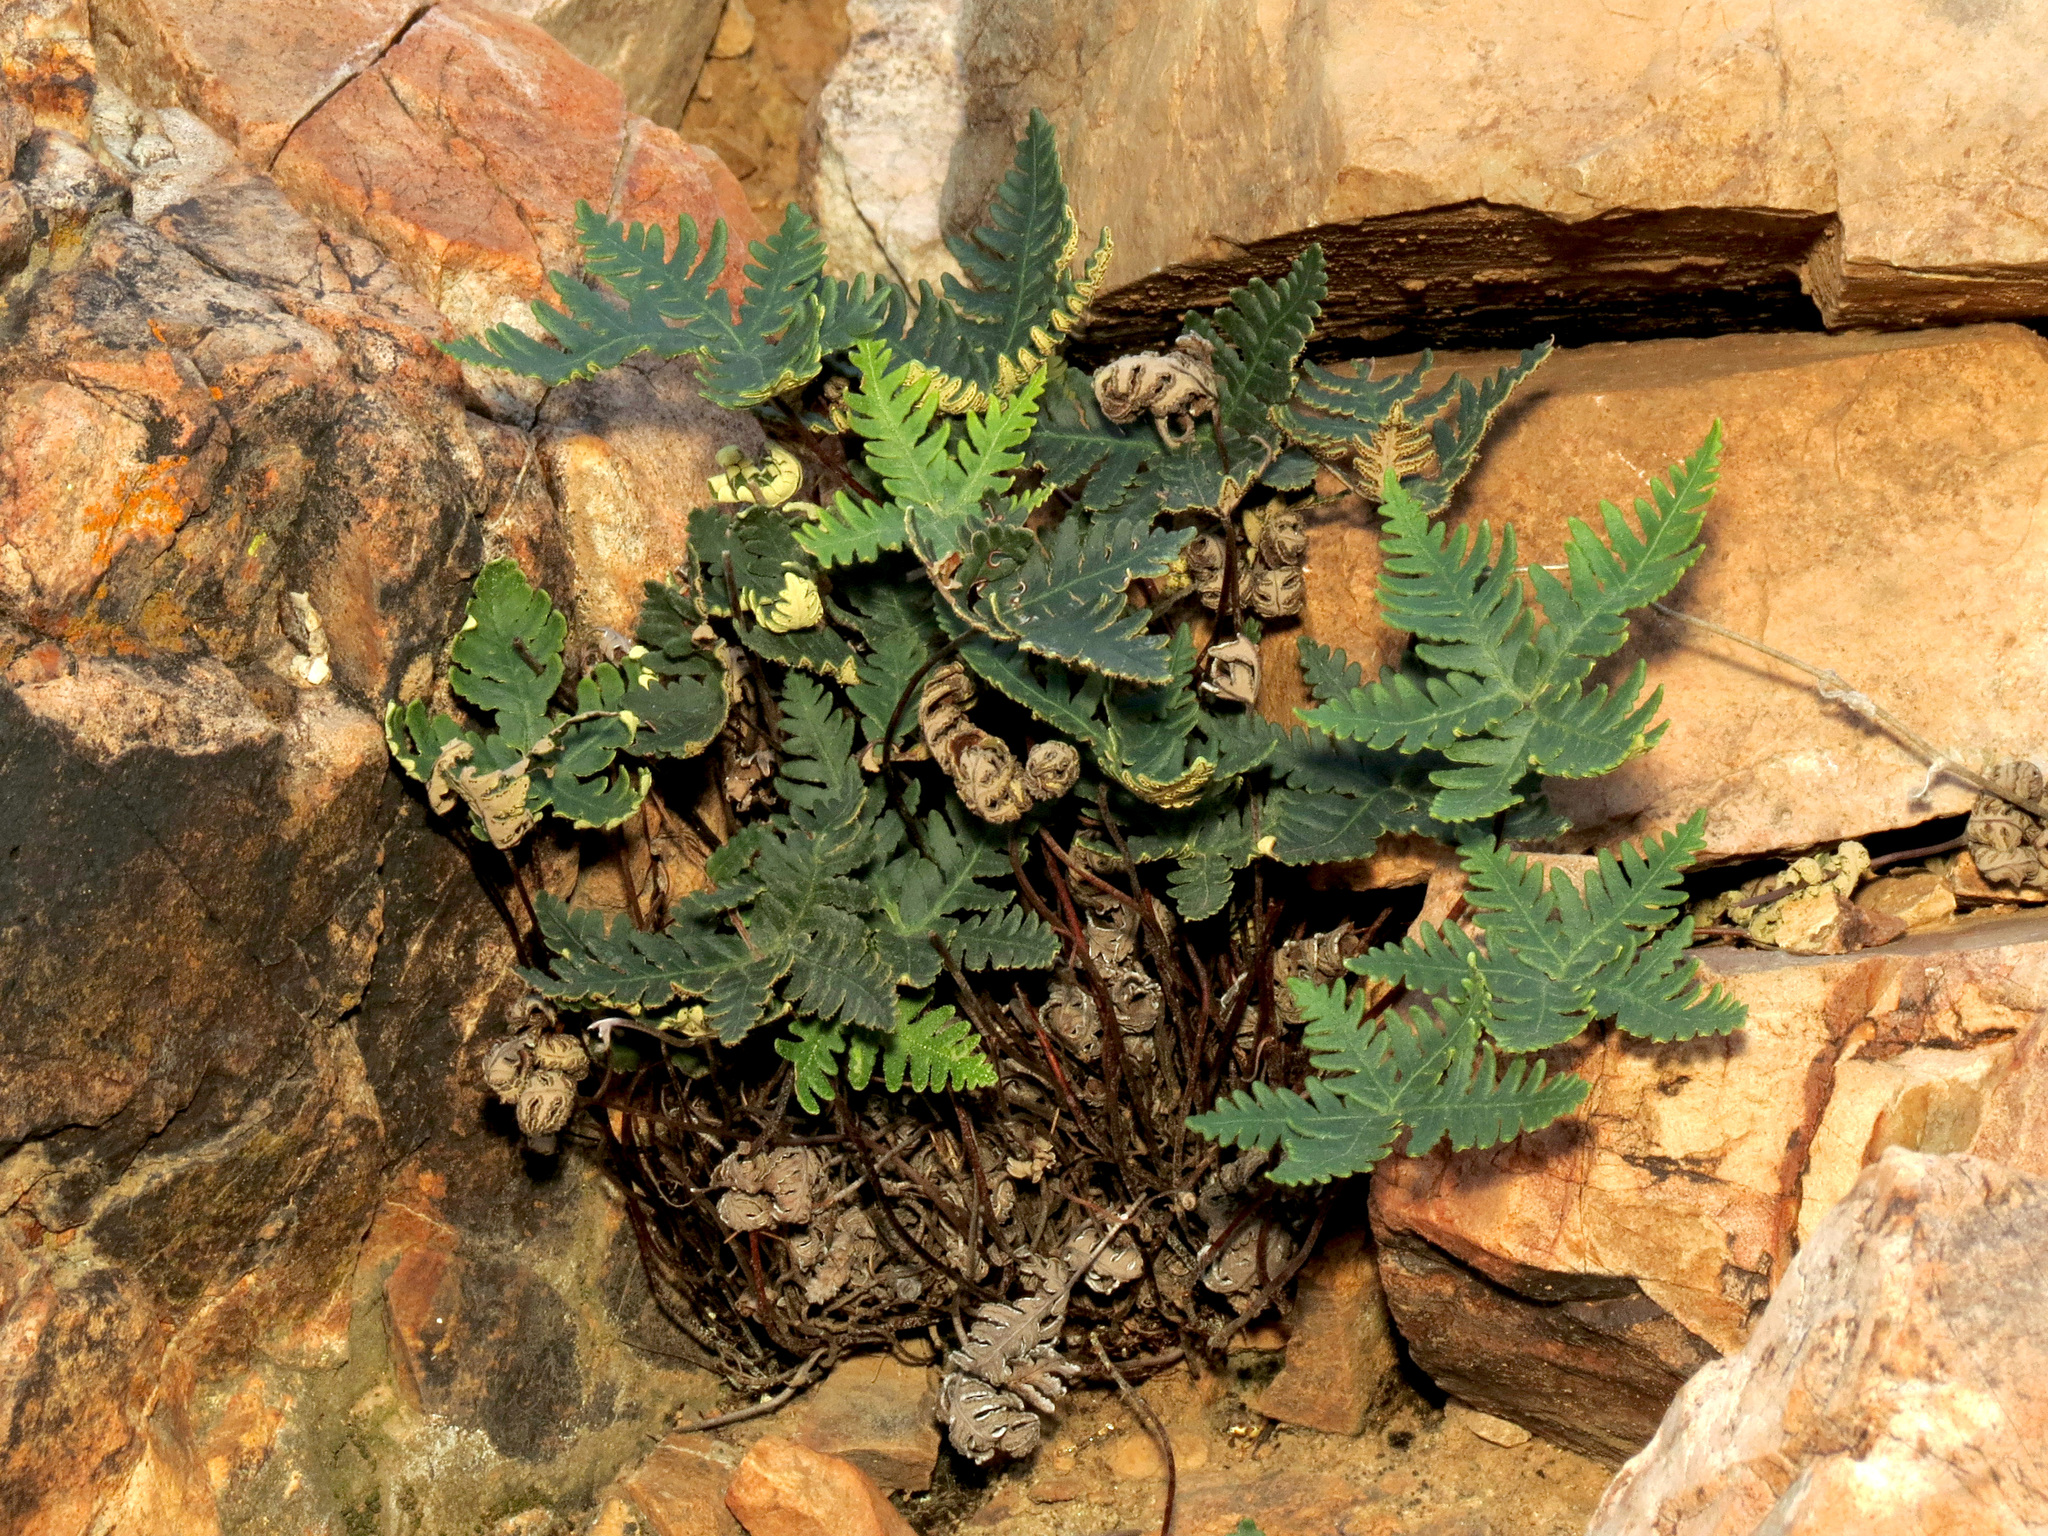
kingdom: Plantae
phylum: Tracheophyta
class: Polypodiopsida
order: Polypodiales
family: Pteridaceae
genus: Notholaena
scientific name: Notholaena standleyi
